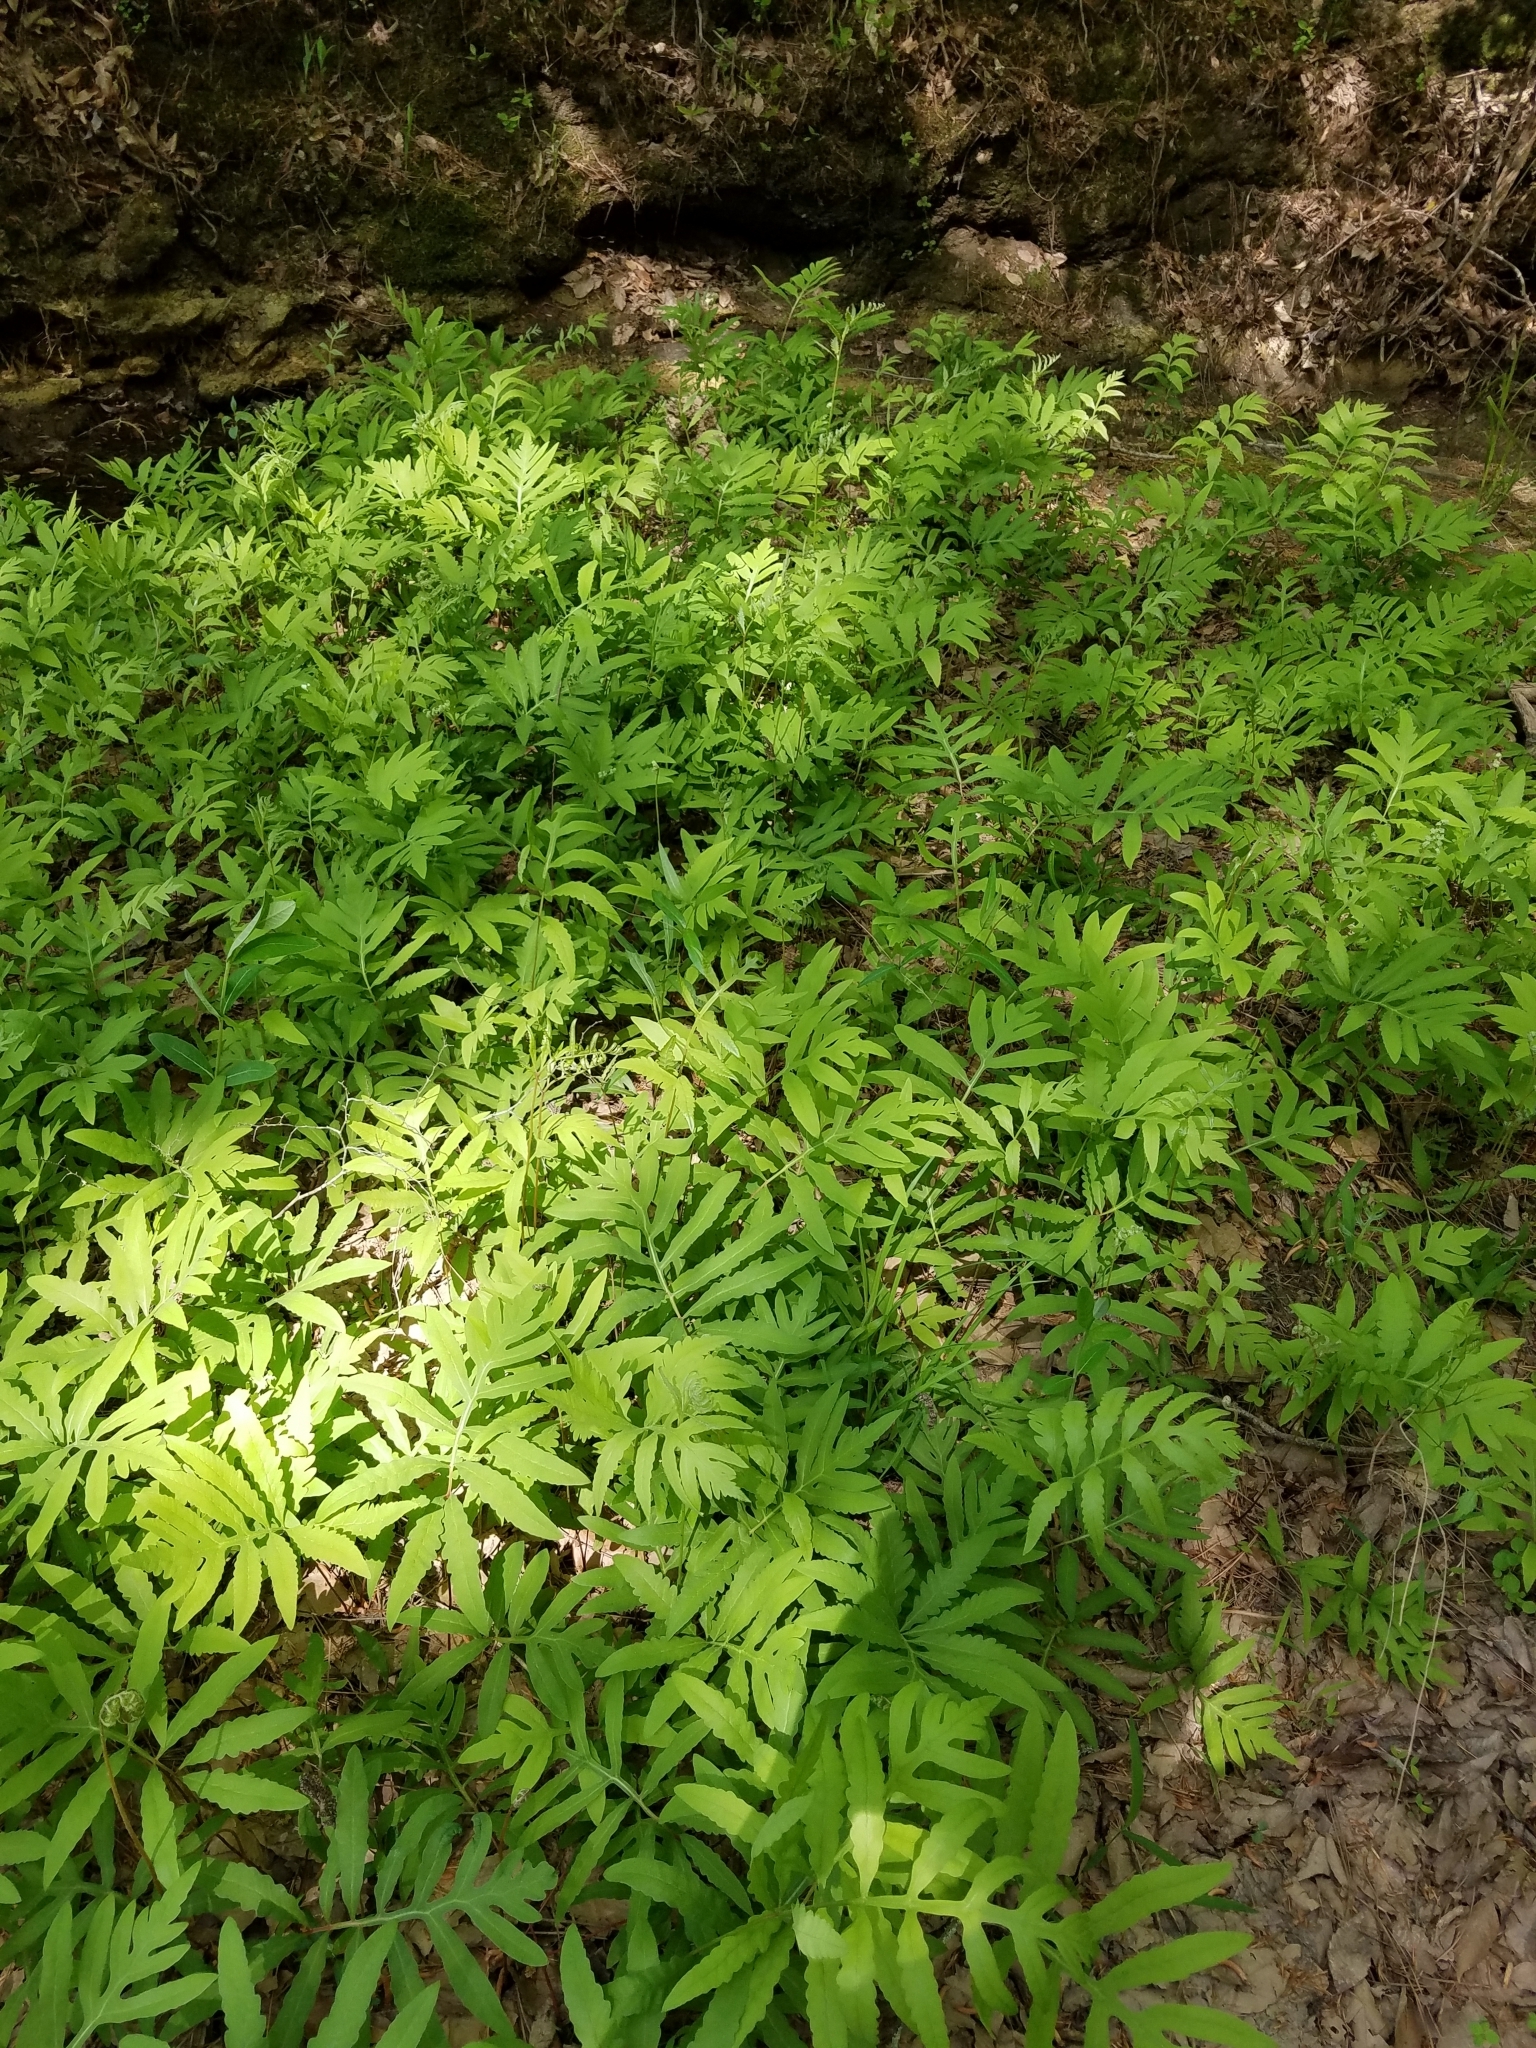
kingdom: Plantae
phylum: Tracheophyta
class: Polypodiopsida
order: Polypodiales
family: Onocleaceae
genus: Onoclea
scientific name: Onoclea sensibilis
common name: Sensitive fern
